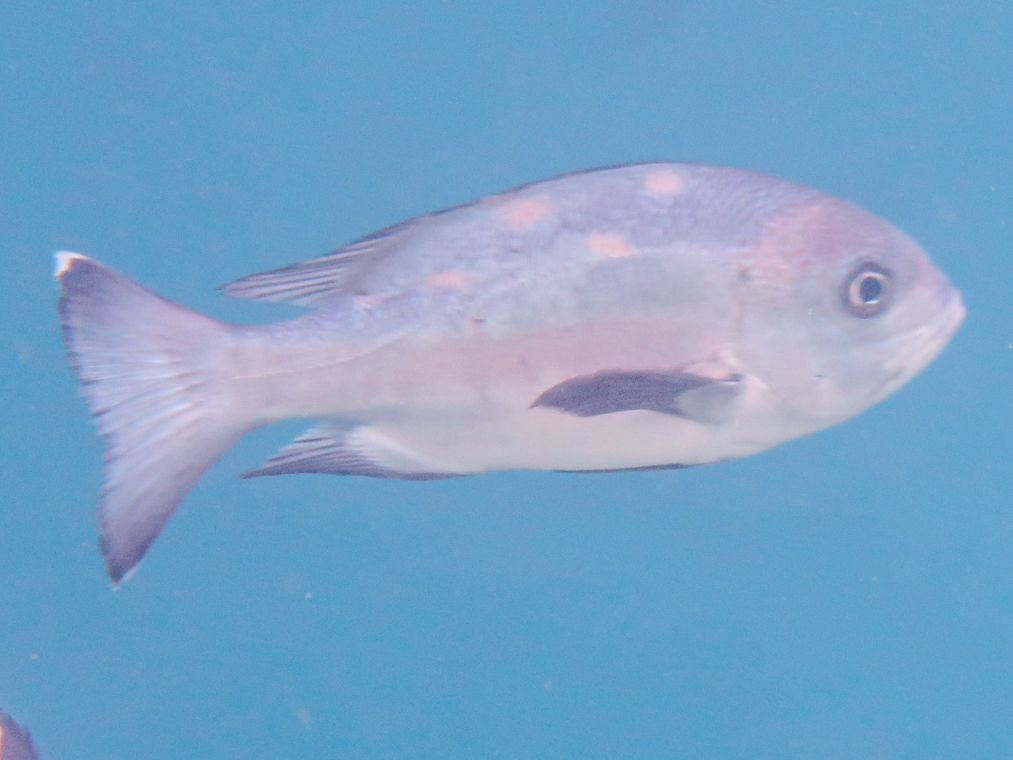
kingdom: Animalia
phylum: Chordata
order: Perciformes
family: Lutjanidae
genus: Macolor
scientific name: Macolor niger
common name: Black snapper
